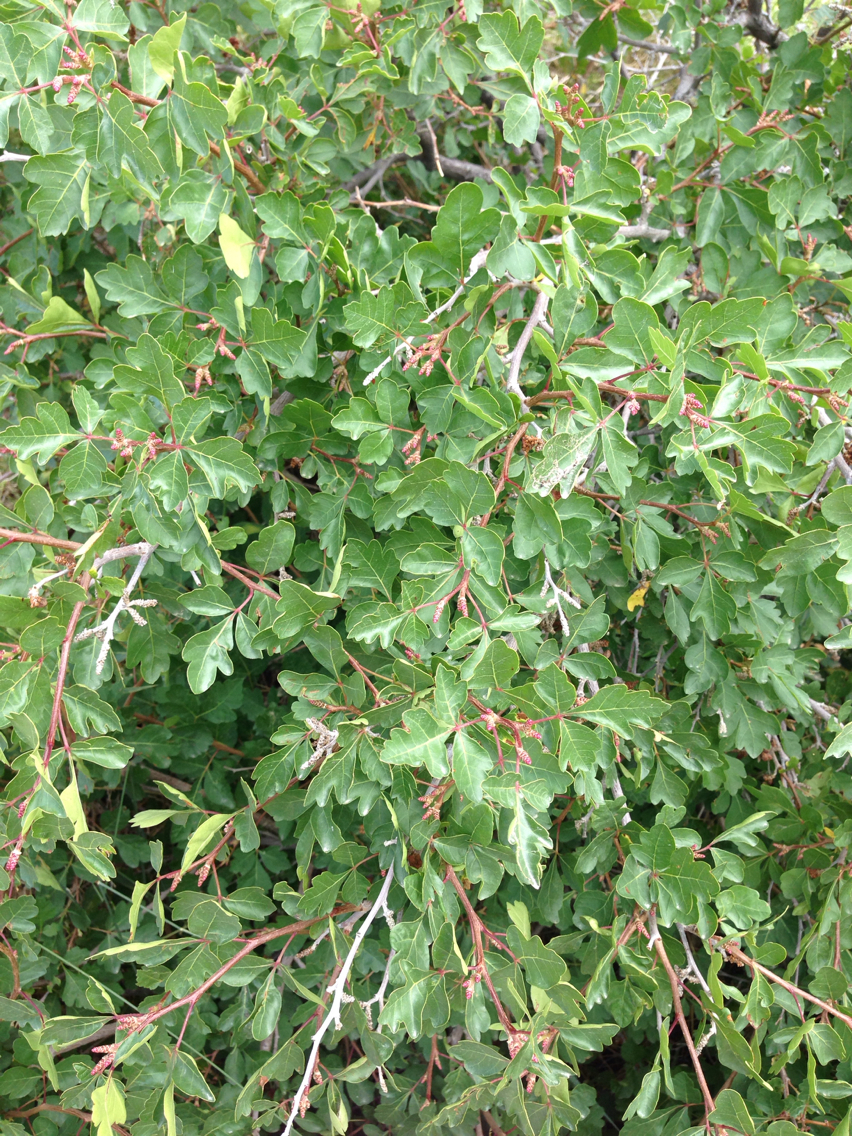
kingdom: Plantae
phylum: Tracheophyta
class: Magnoliopsida
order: Sapindales
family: Anacardiaceae
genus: Rhus
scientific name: Rhus aromatica
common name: Aromatic sumac
